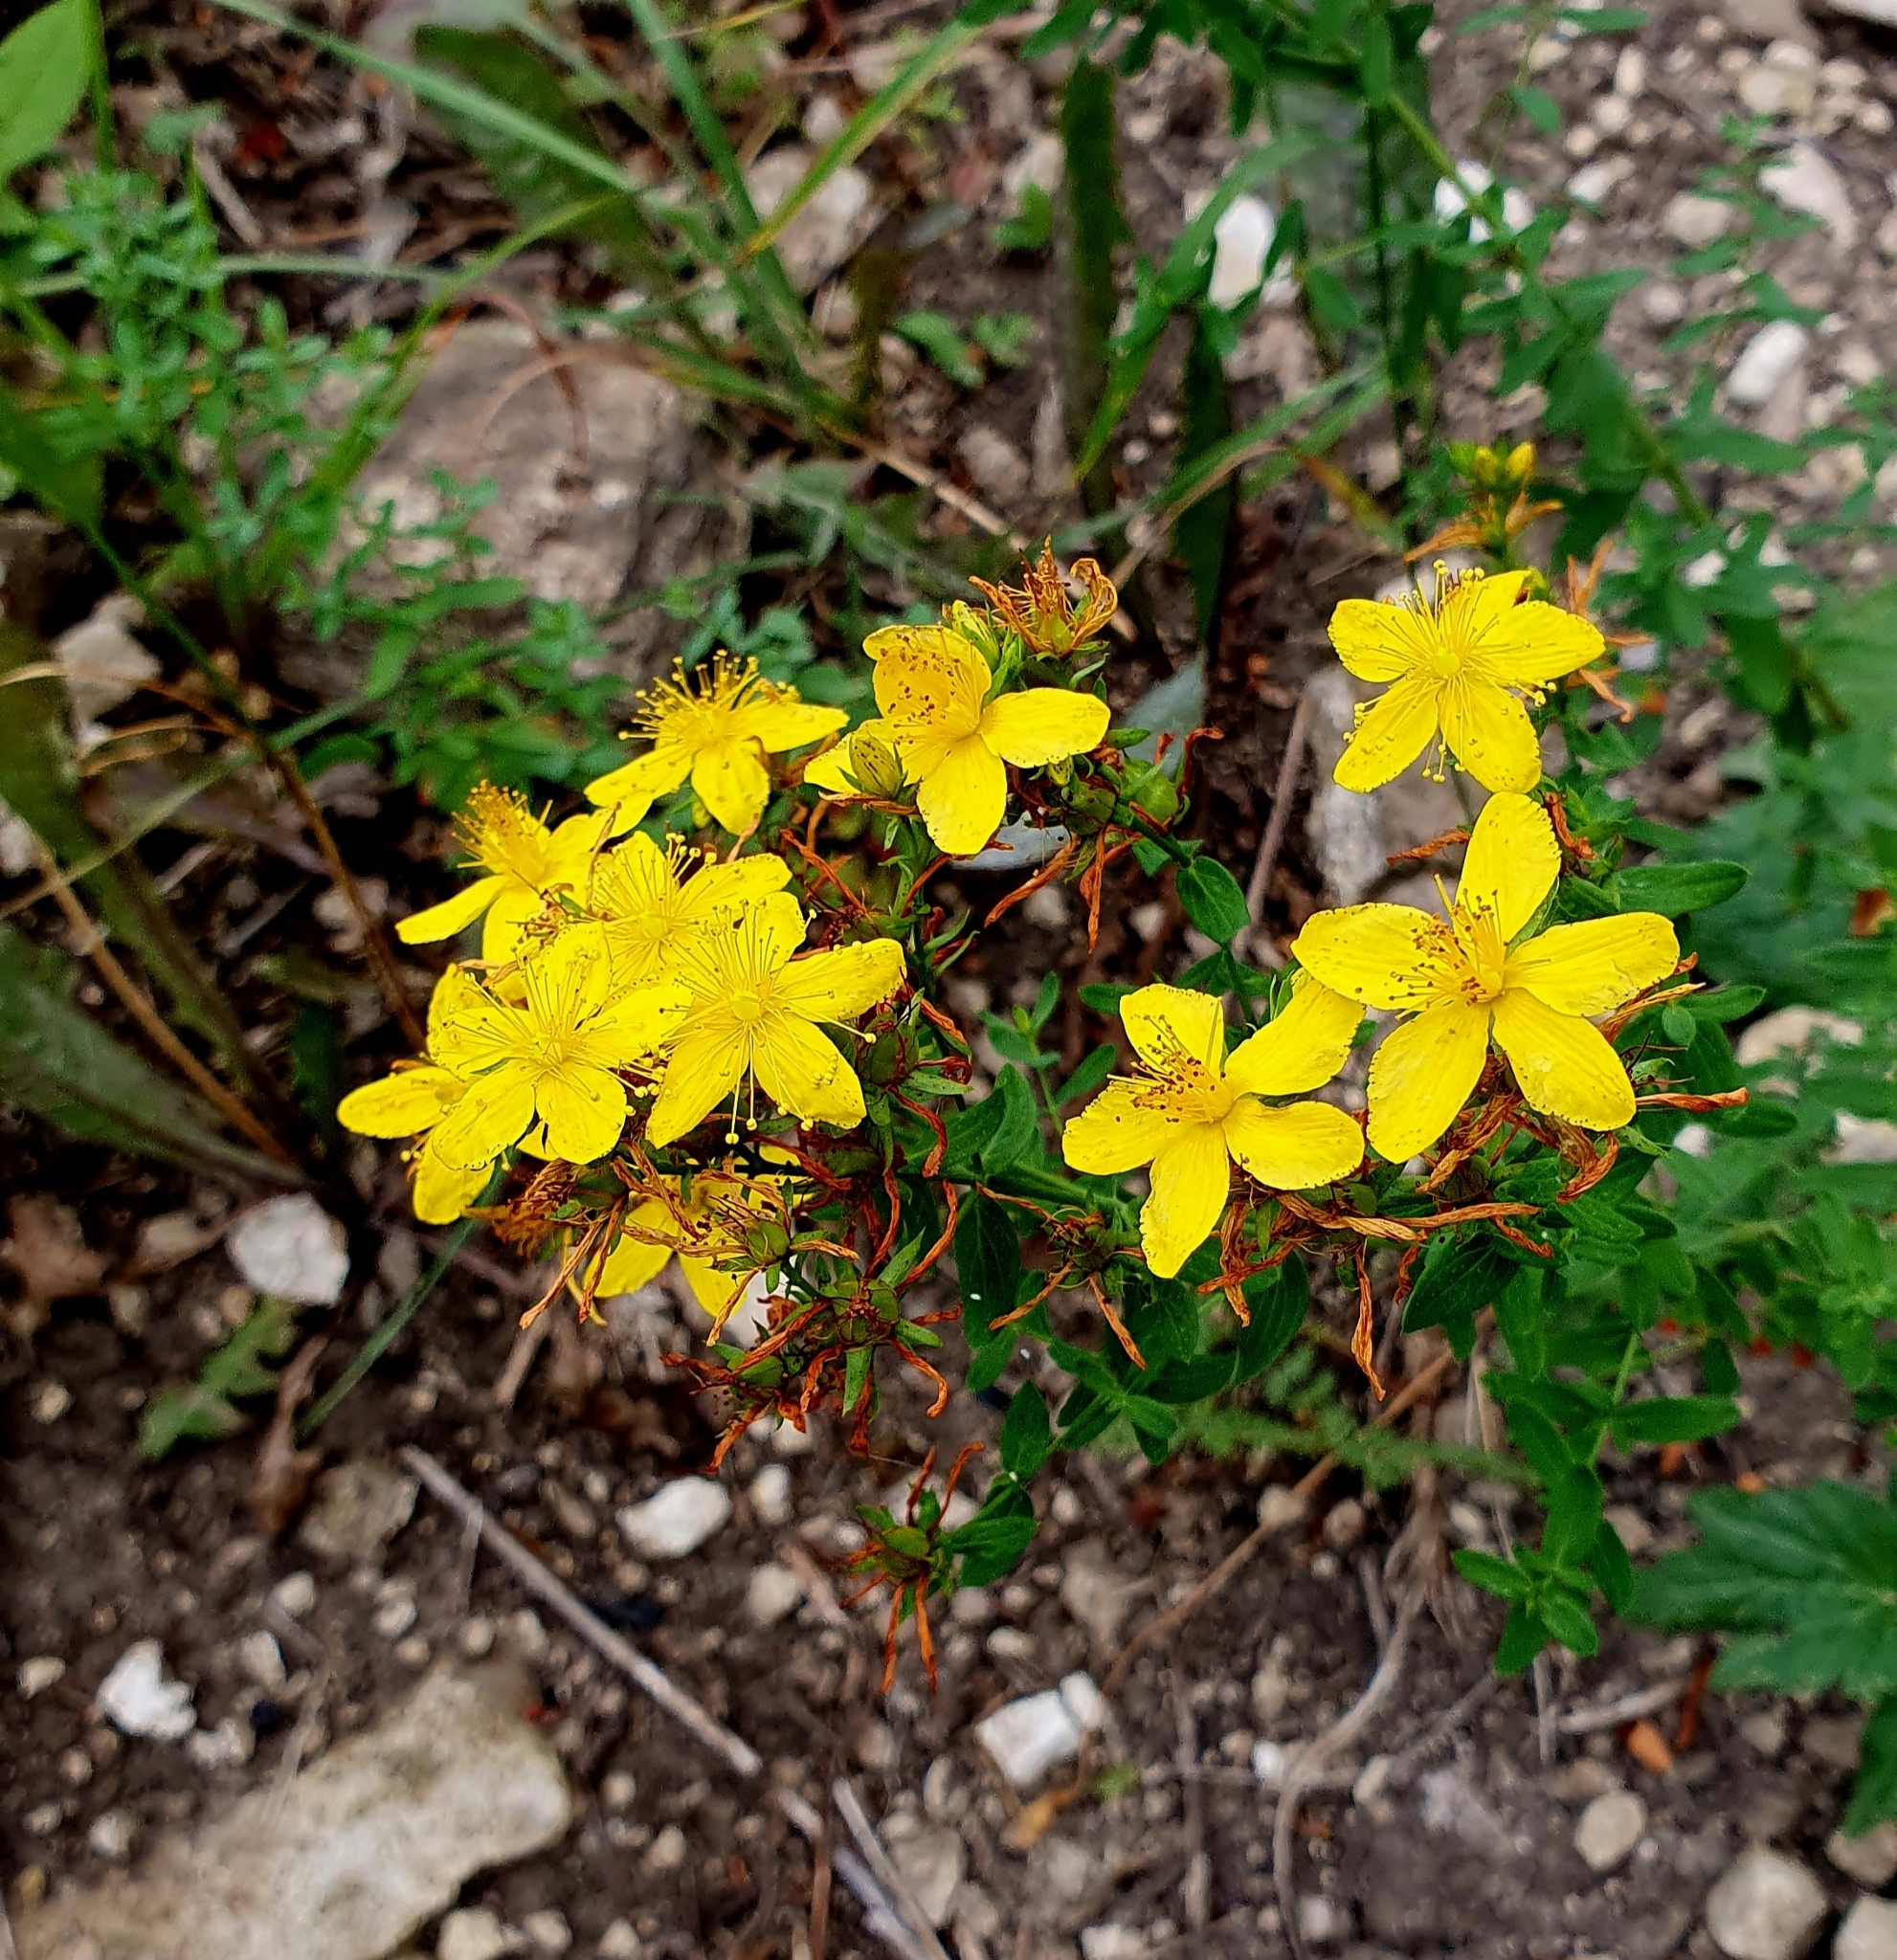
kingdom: Plantae
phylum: Tracheophyta
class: Magnoliopsida
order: Malpighiales
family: Hypericaceae
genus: Hypericum
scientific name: Hypericum perforatum
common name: Common st. johnswort
